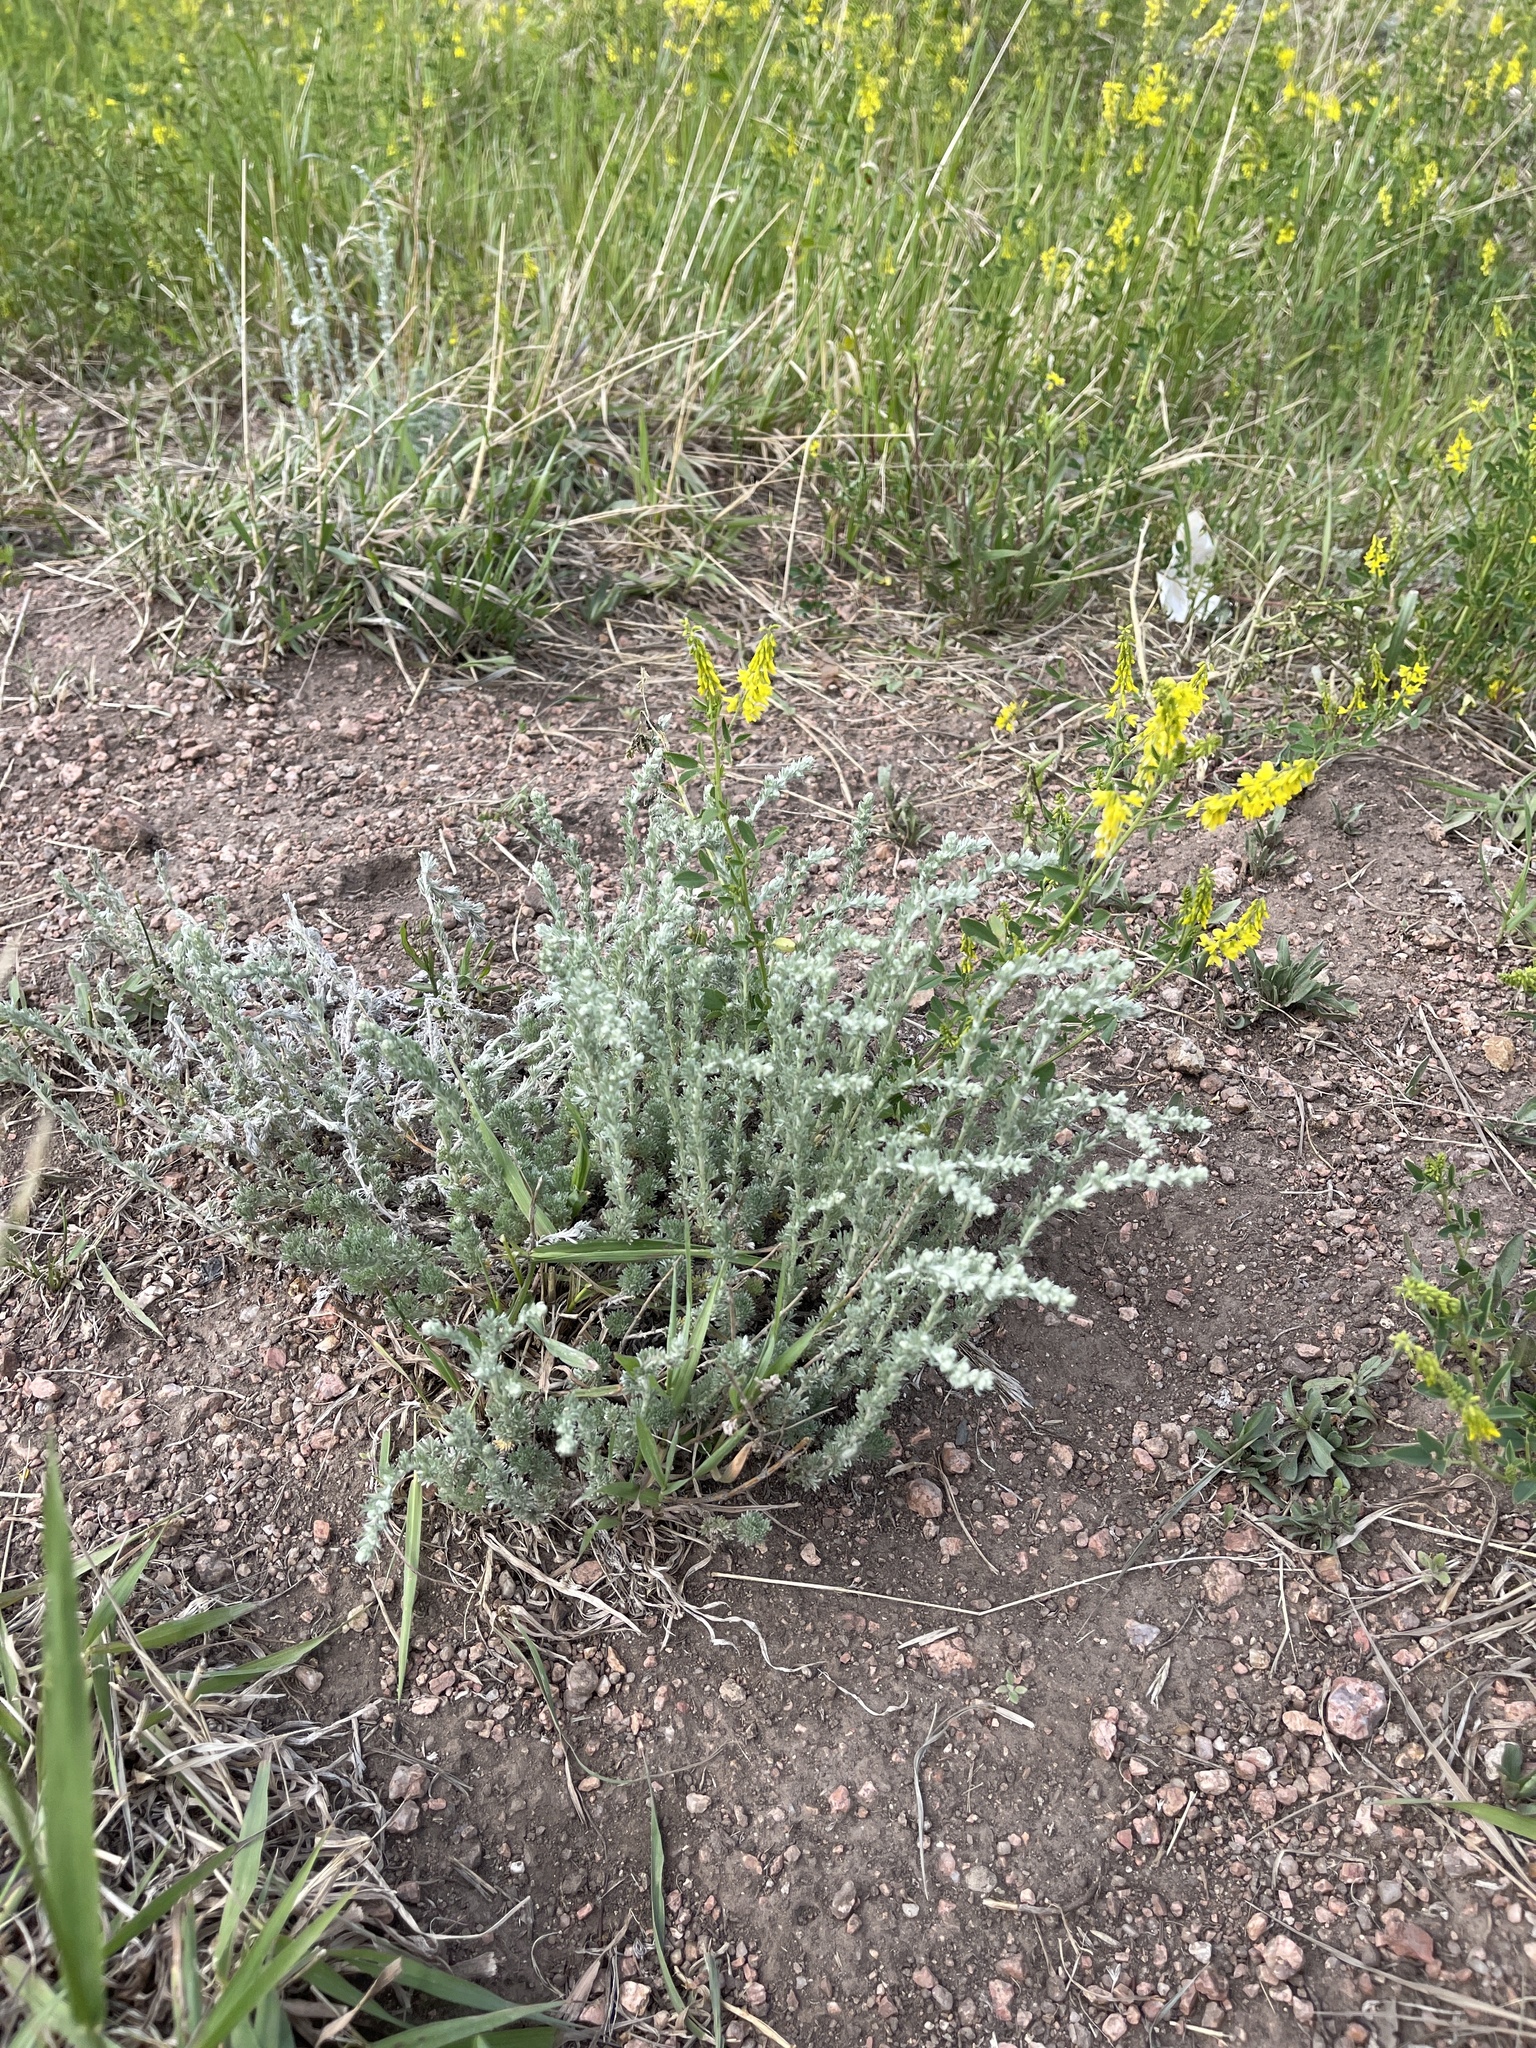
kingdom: Plantae
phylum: Tracheophyta
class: Magnoliopsida
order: Asterales
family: Asteraceae
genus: Artemisia
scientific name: Artemisia frigida
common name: Prairie sagewort
